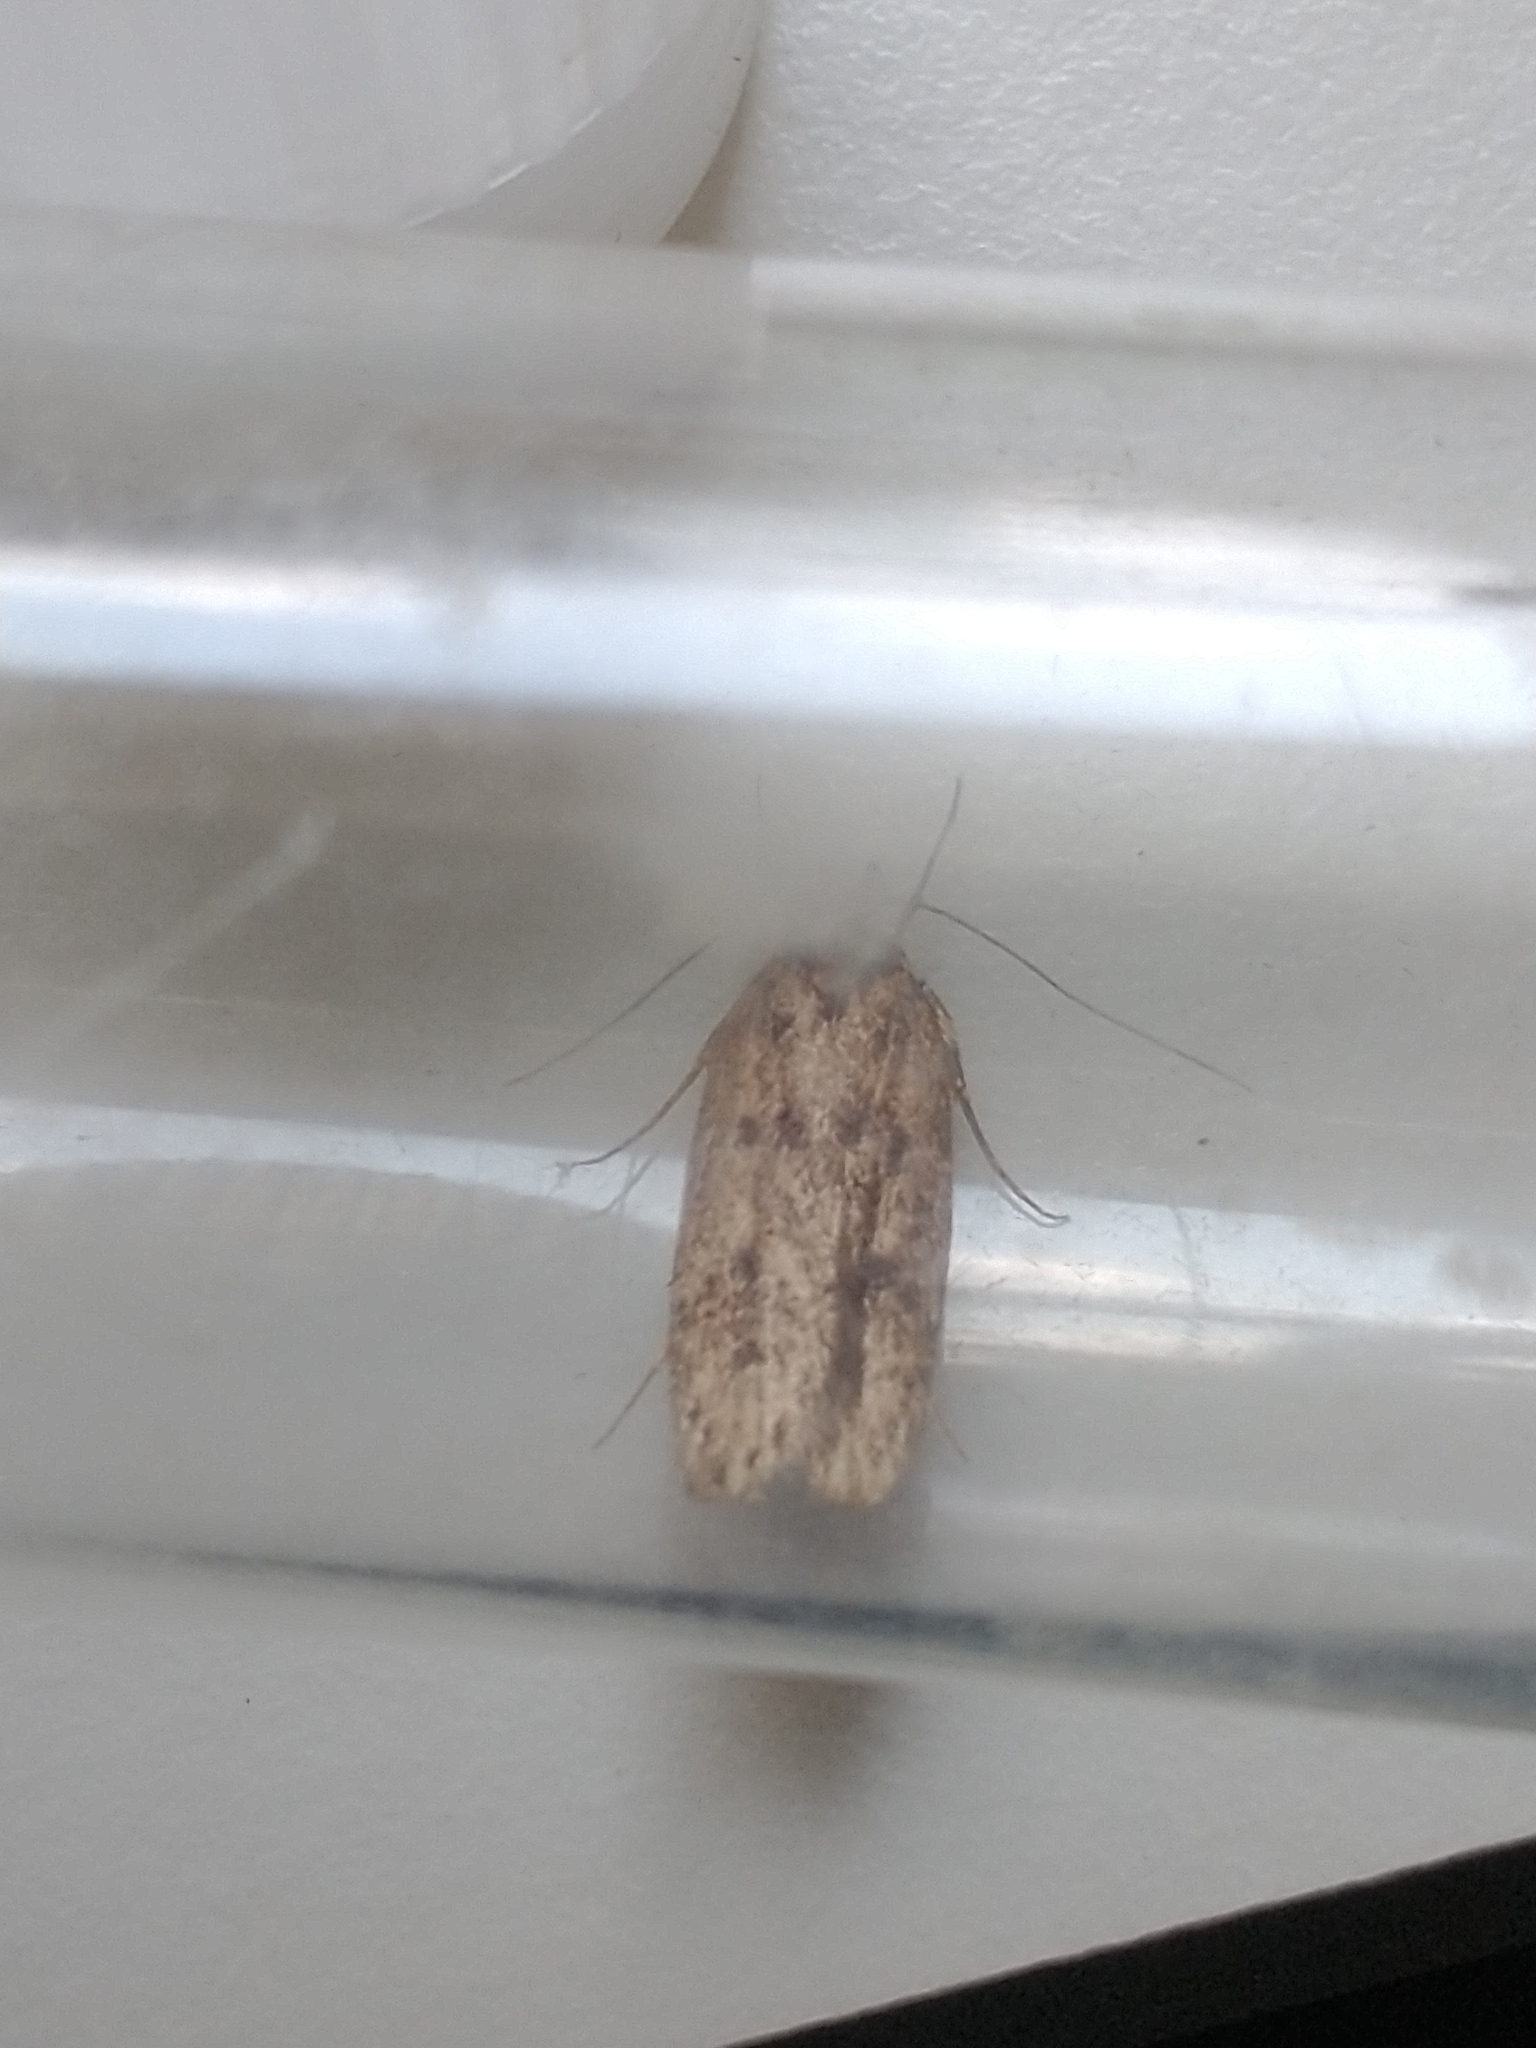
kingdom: Animalia
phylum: Arthropoda
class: Insecta
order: Lepidoptera
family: Oecophoridae
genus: Hofmannophila
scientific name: Hofmannophila pseudospretella
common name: Brown house moth
